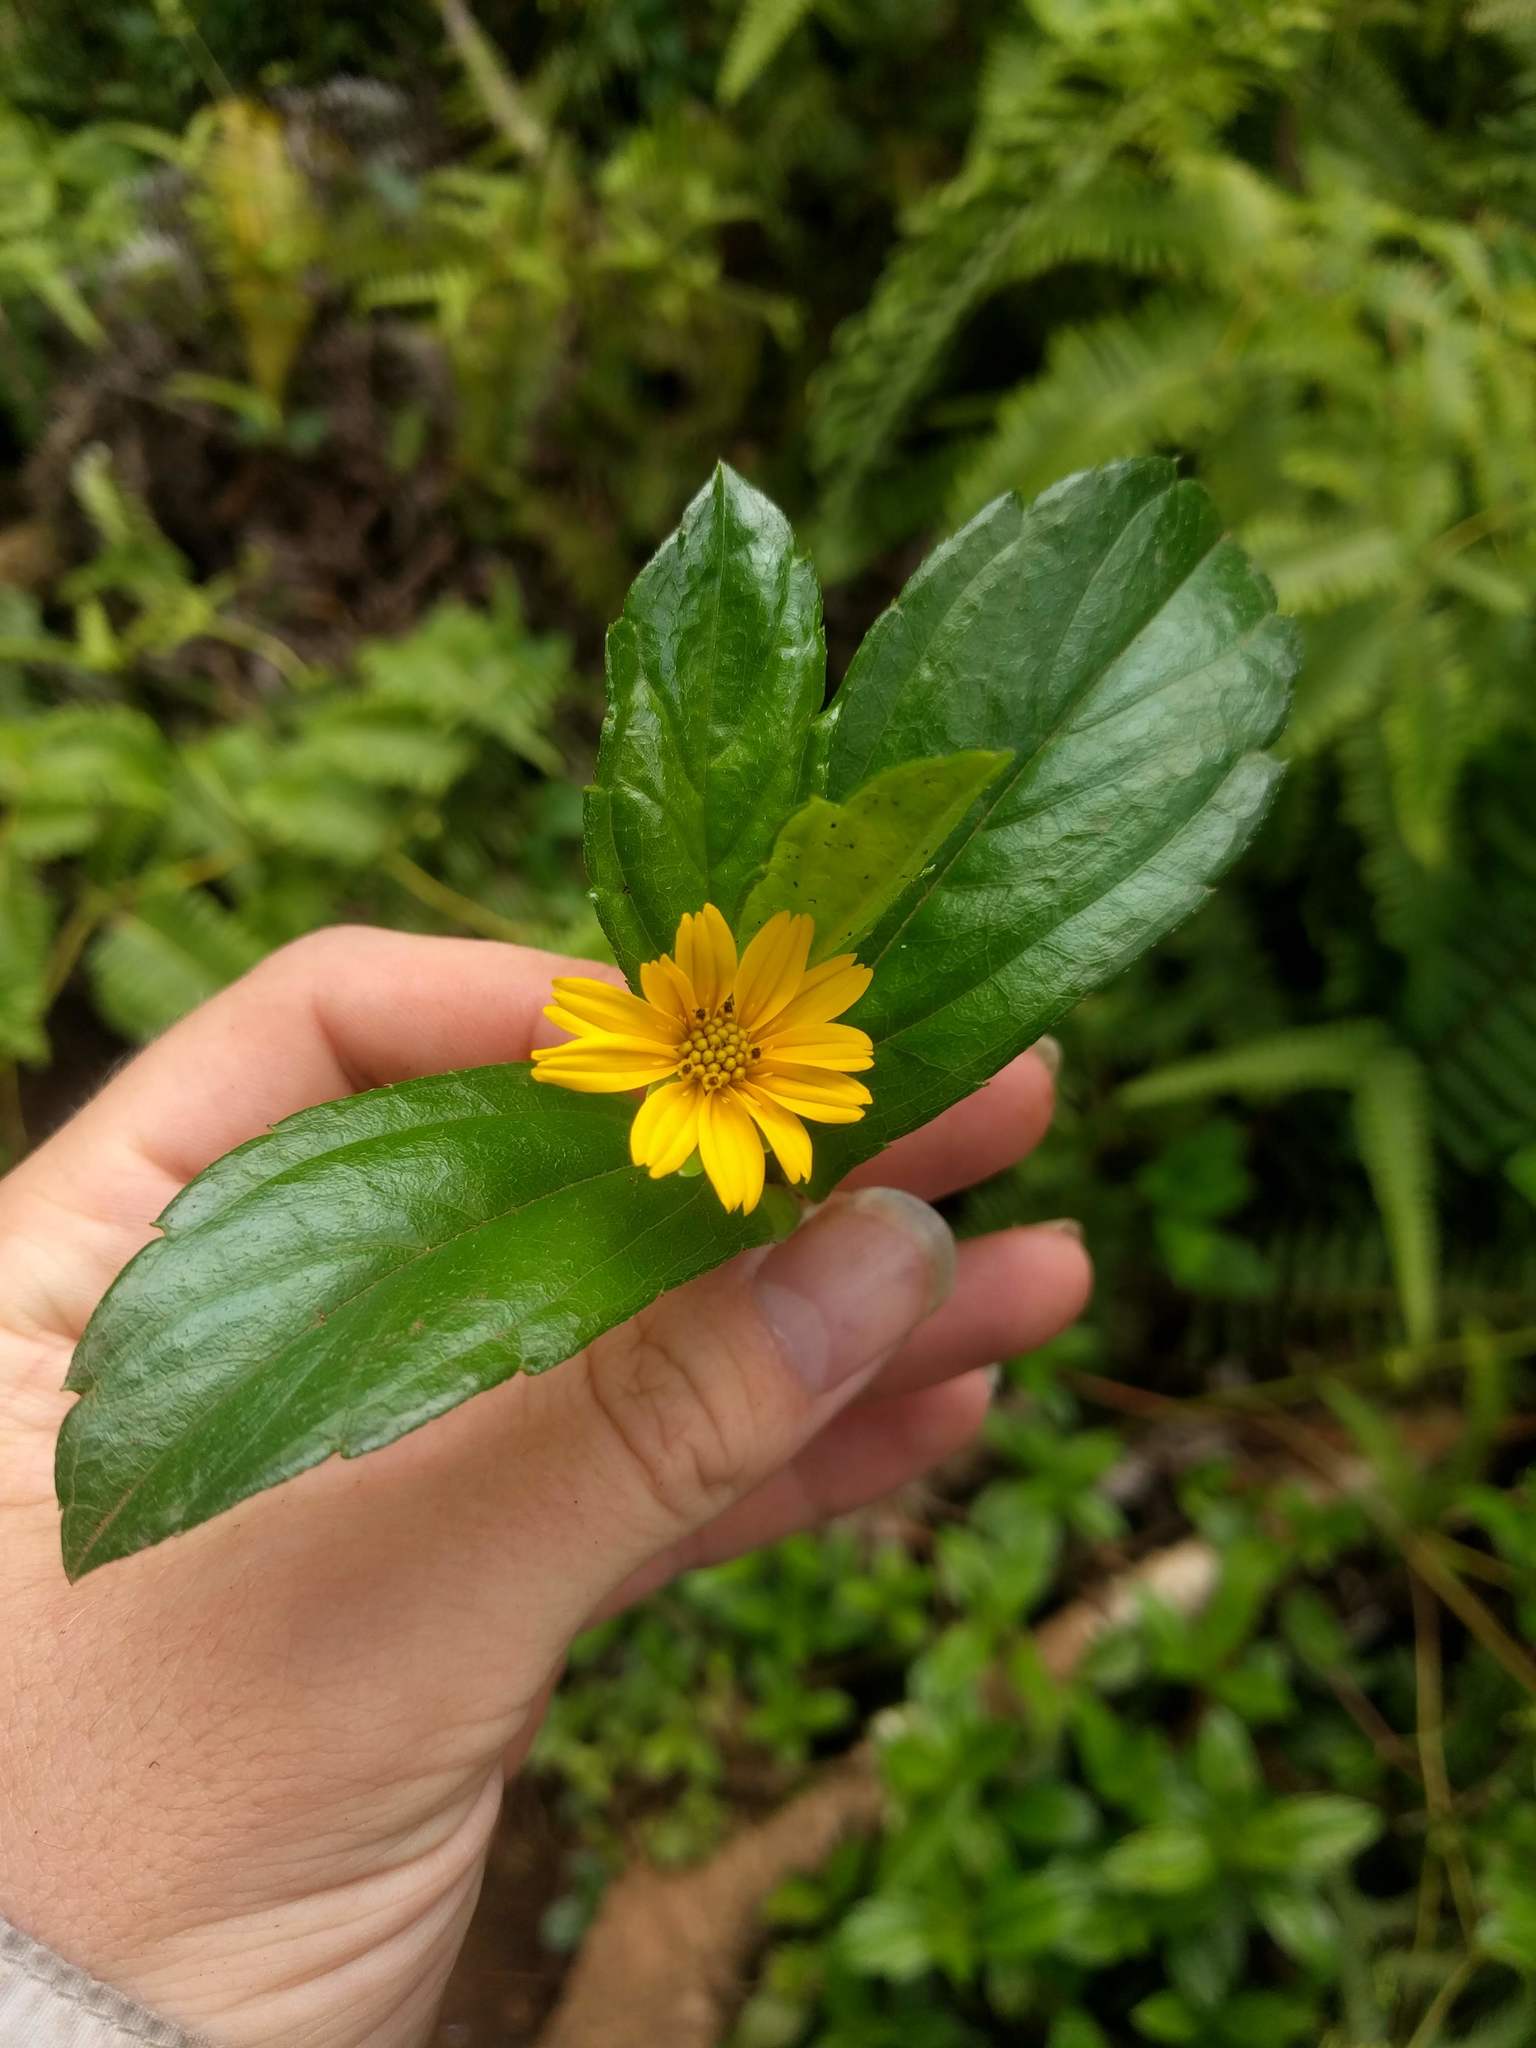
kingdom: Plantae
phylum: Tracheophyta
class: Magnoliopsida
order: Asterales
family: Asteraceae
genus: Sphagneticola
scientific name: Sphagneticola trilobata
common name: Bay biscayne creeping-oxeye
